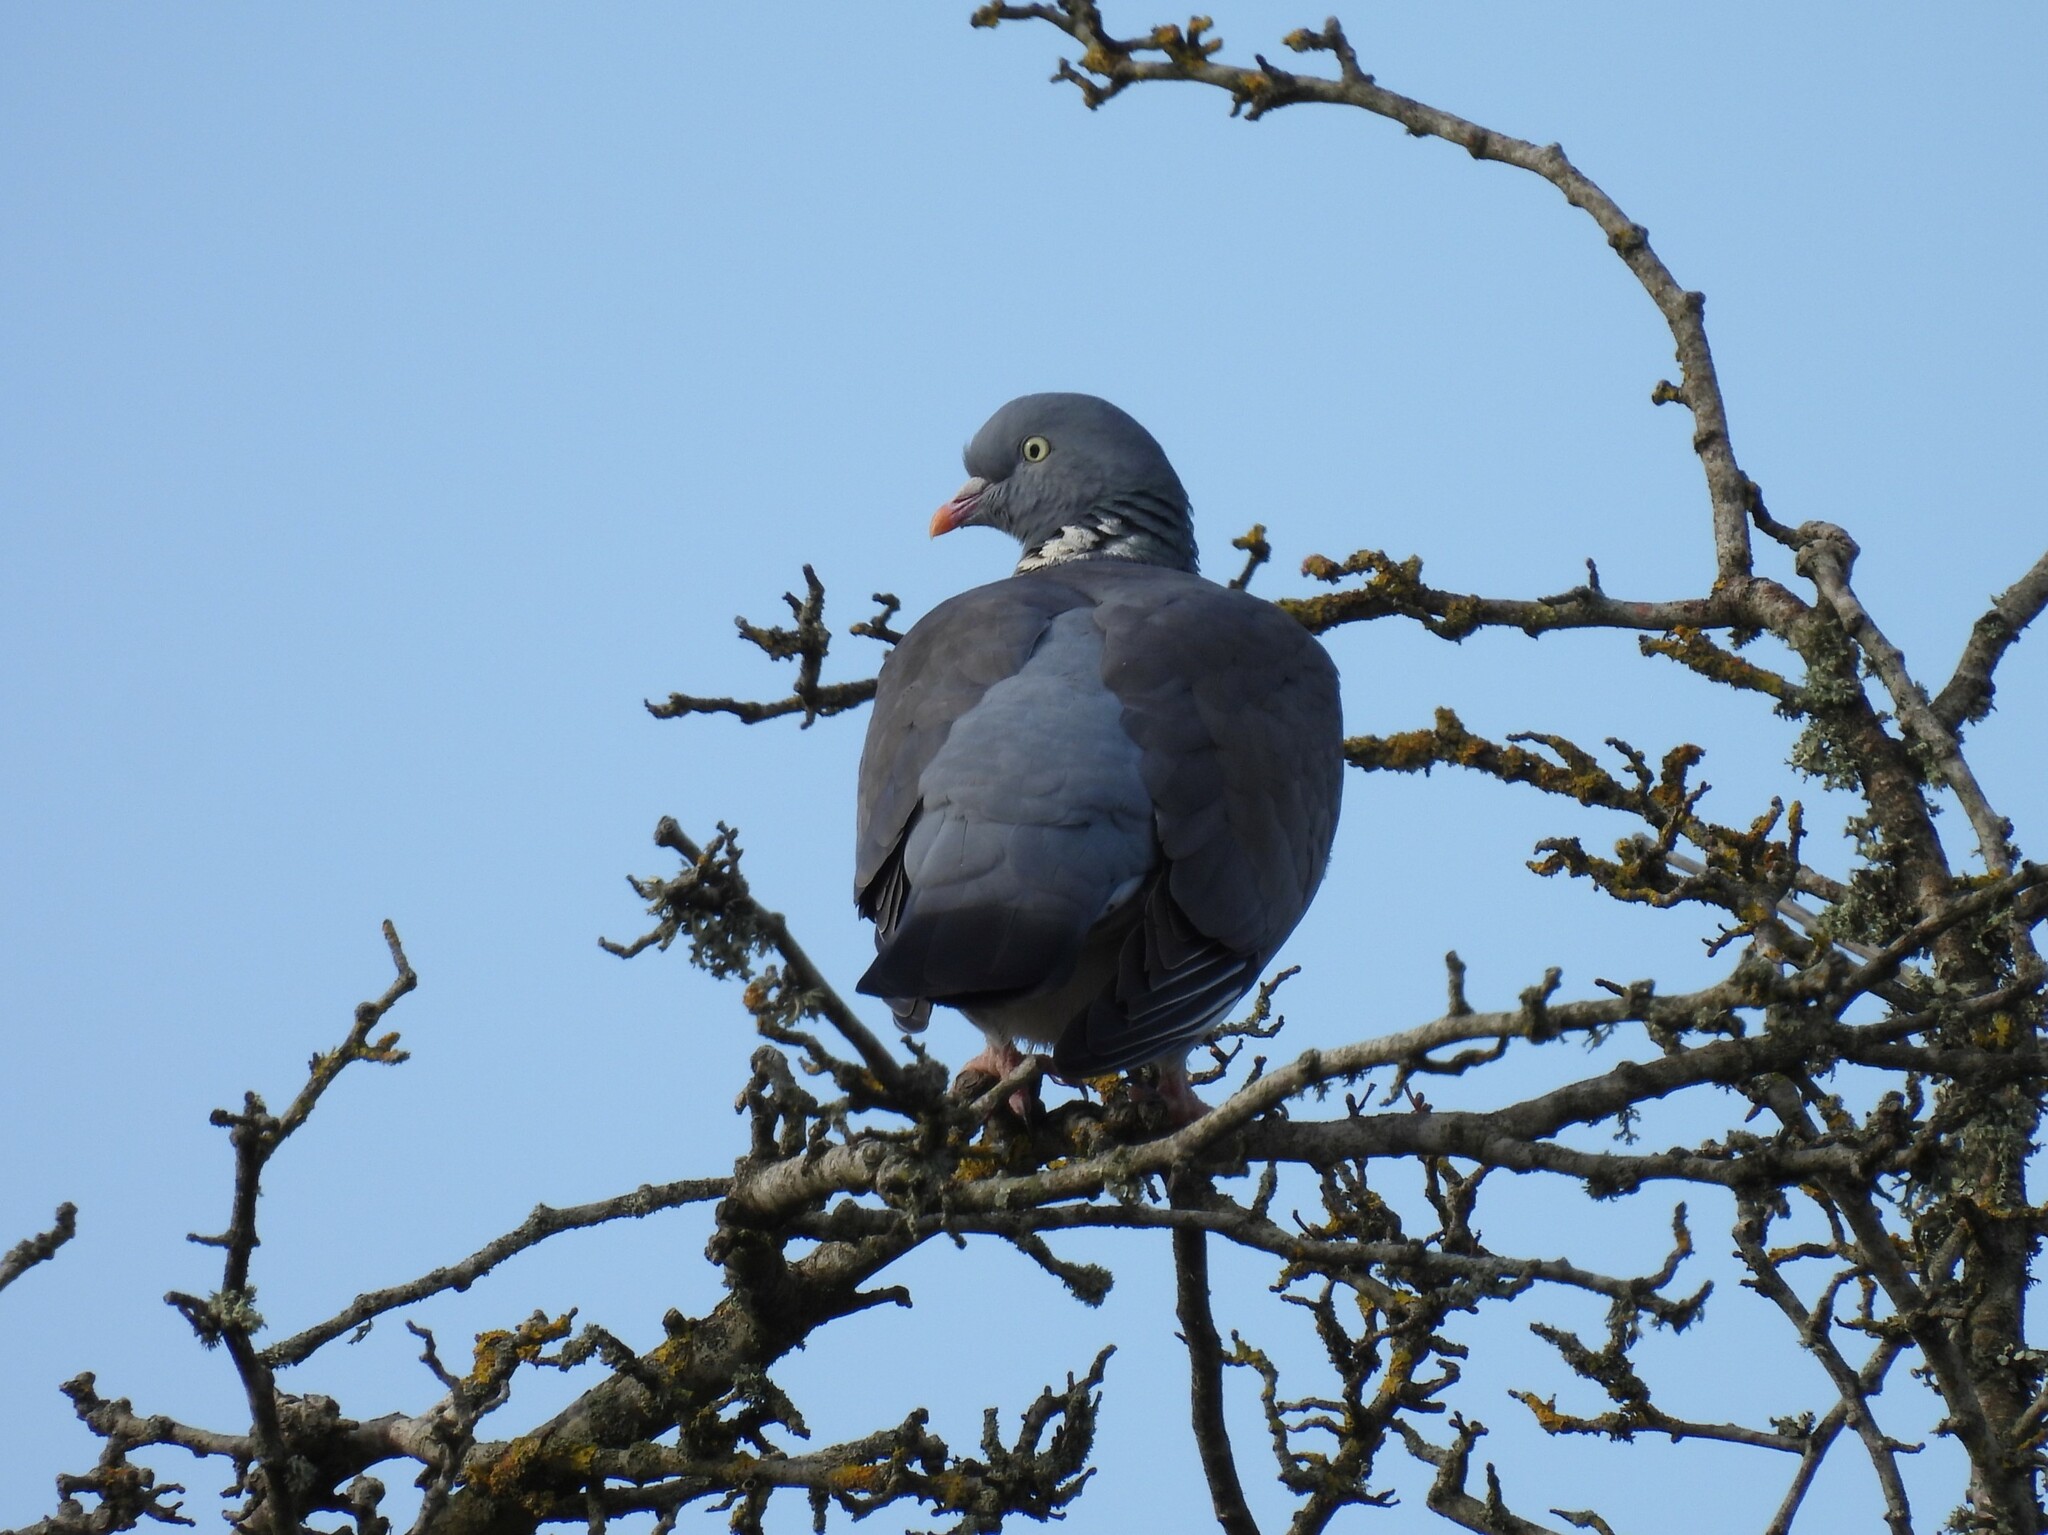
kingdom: Animalia
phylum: Chordata
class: Aves
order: Columbiformes
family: Columbidae
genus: Columba
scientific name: Columba palumbus
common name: Common wood pigeon
